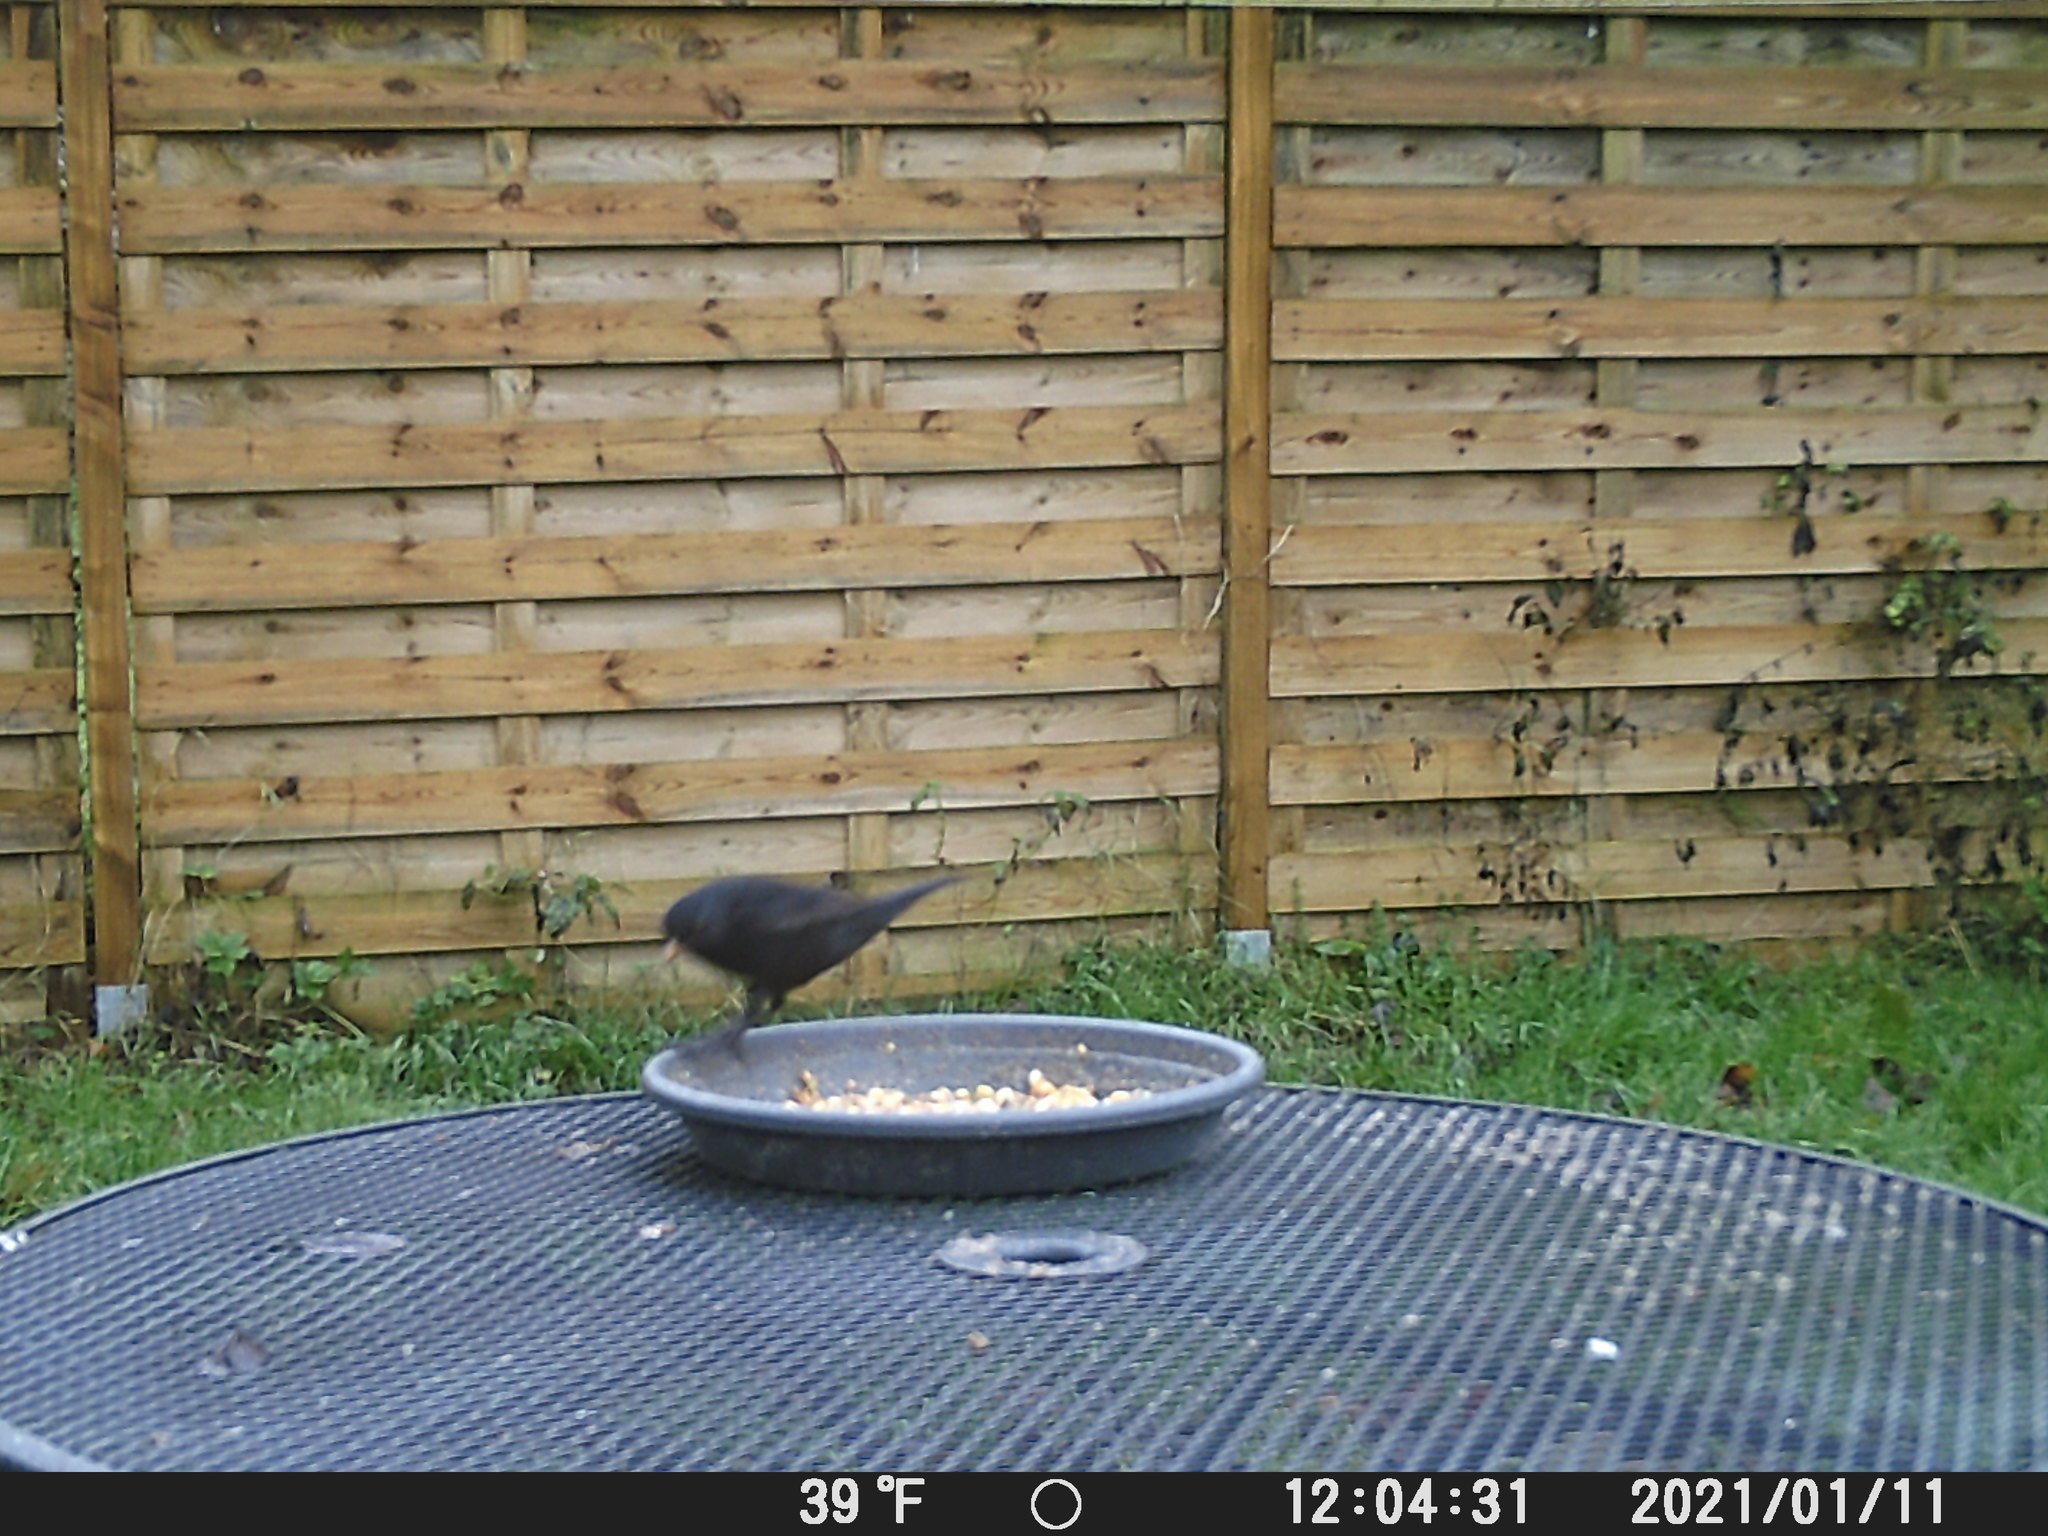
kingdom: Animalia
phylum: Chordata
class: Aves
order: Passeriformes
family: Turdidae
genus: Turdus
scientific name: Turdus merula
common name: Common blackbird
